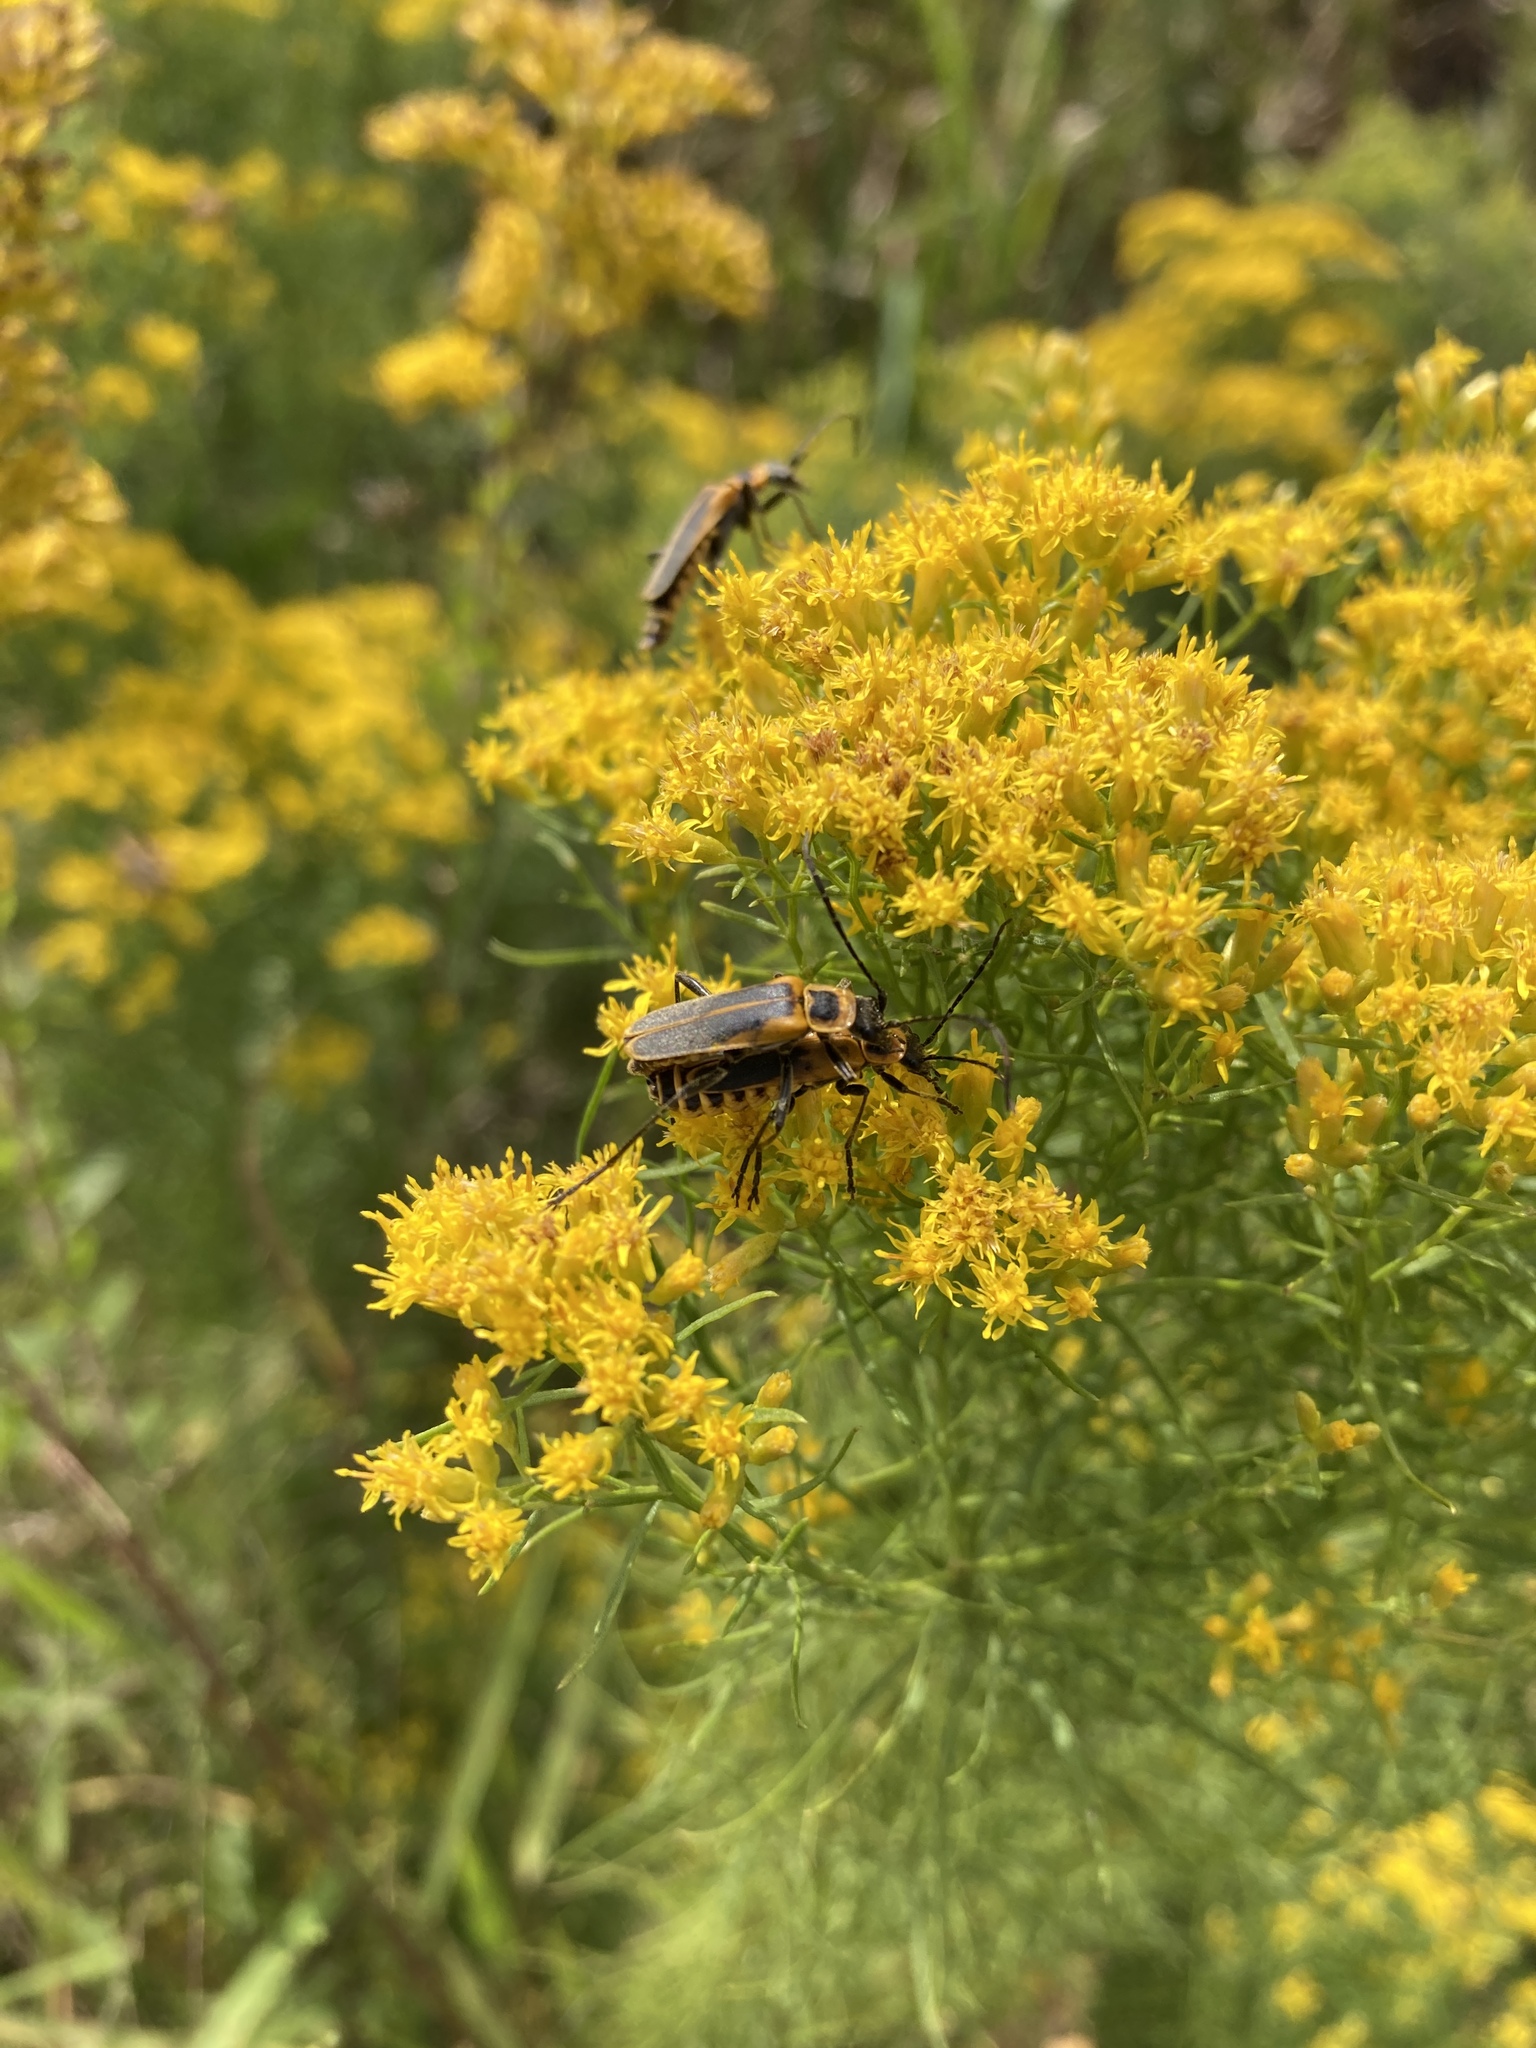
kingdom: Animalia
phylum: Arthropoda
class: Insecta
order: Coleoptera
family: Cantharidae
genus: Chauliognathus
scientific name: Chauliognathus pensylvanicus
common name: Goldenrod soldier beetle
